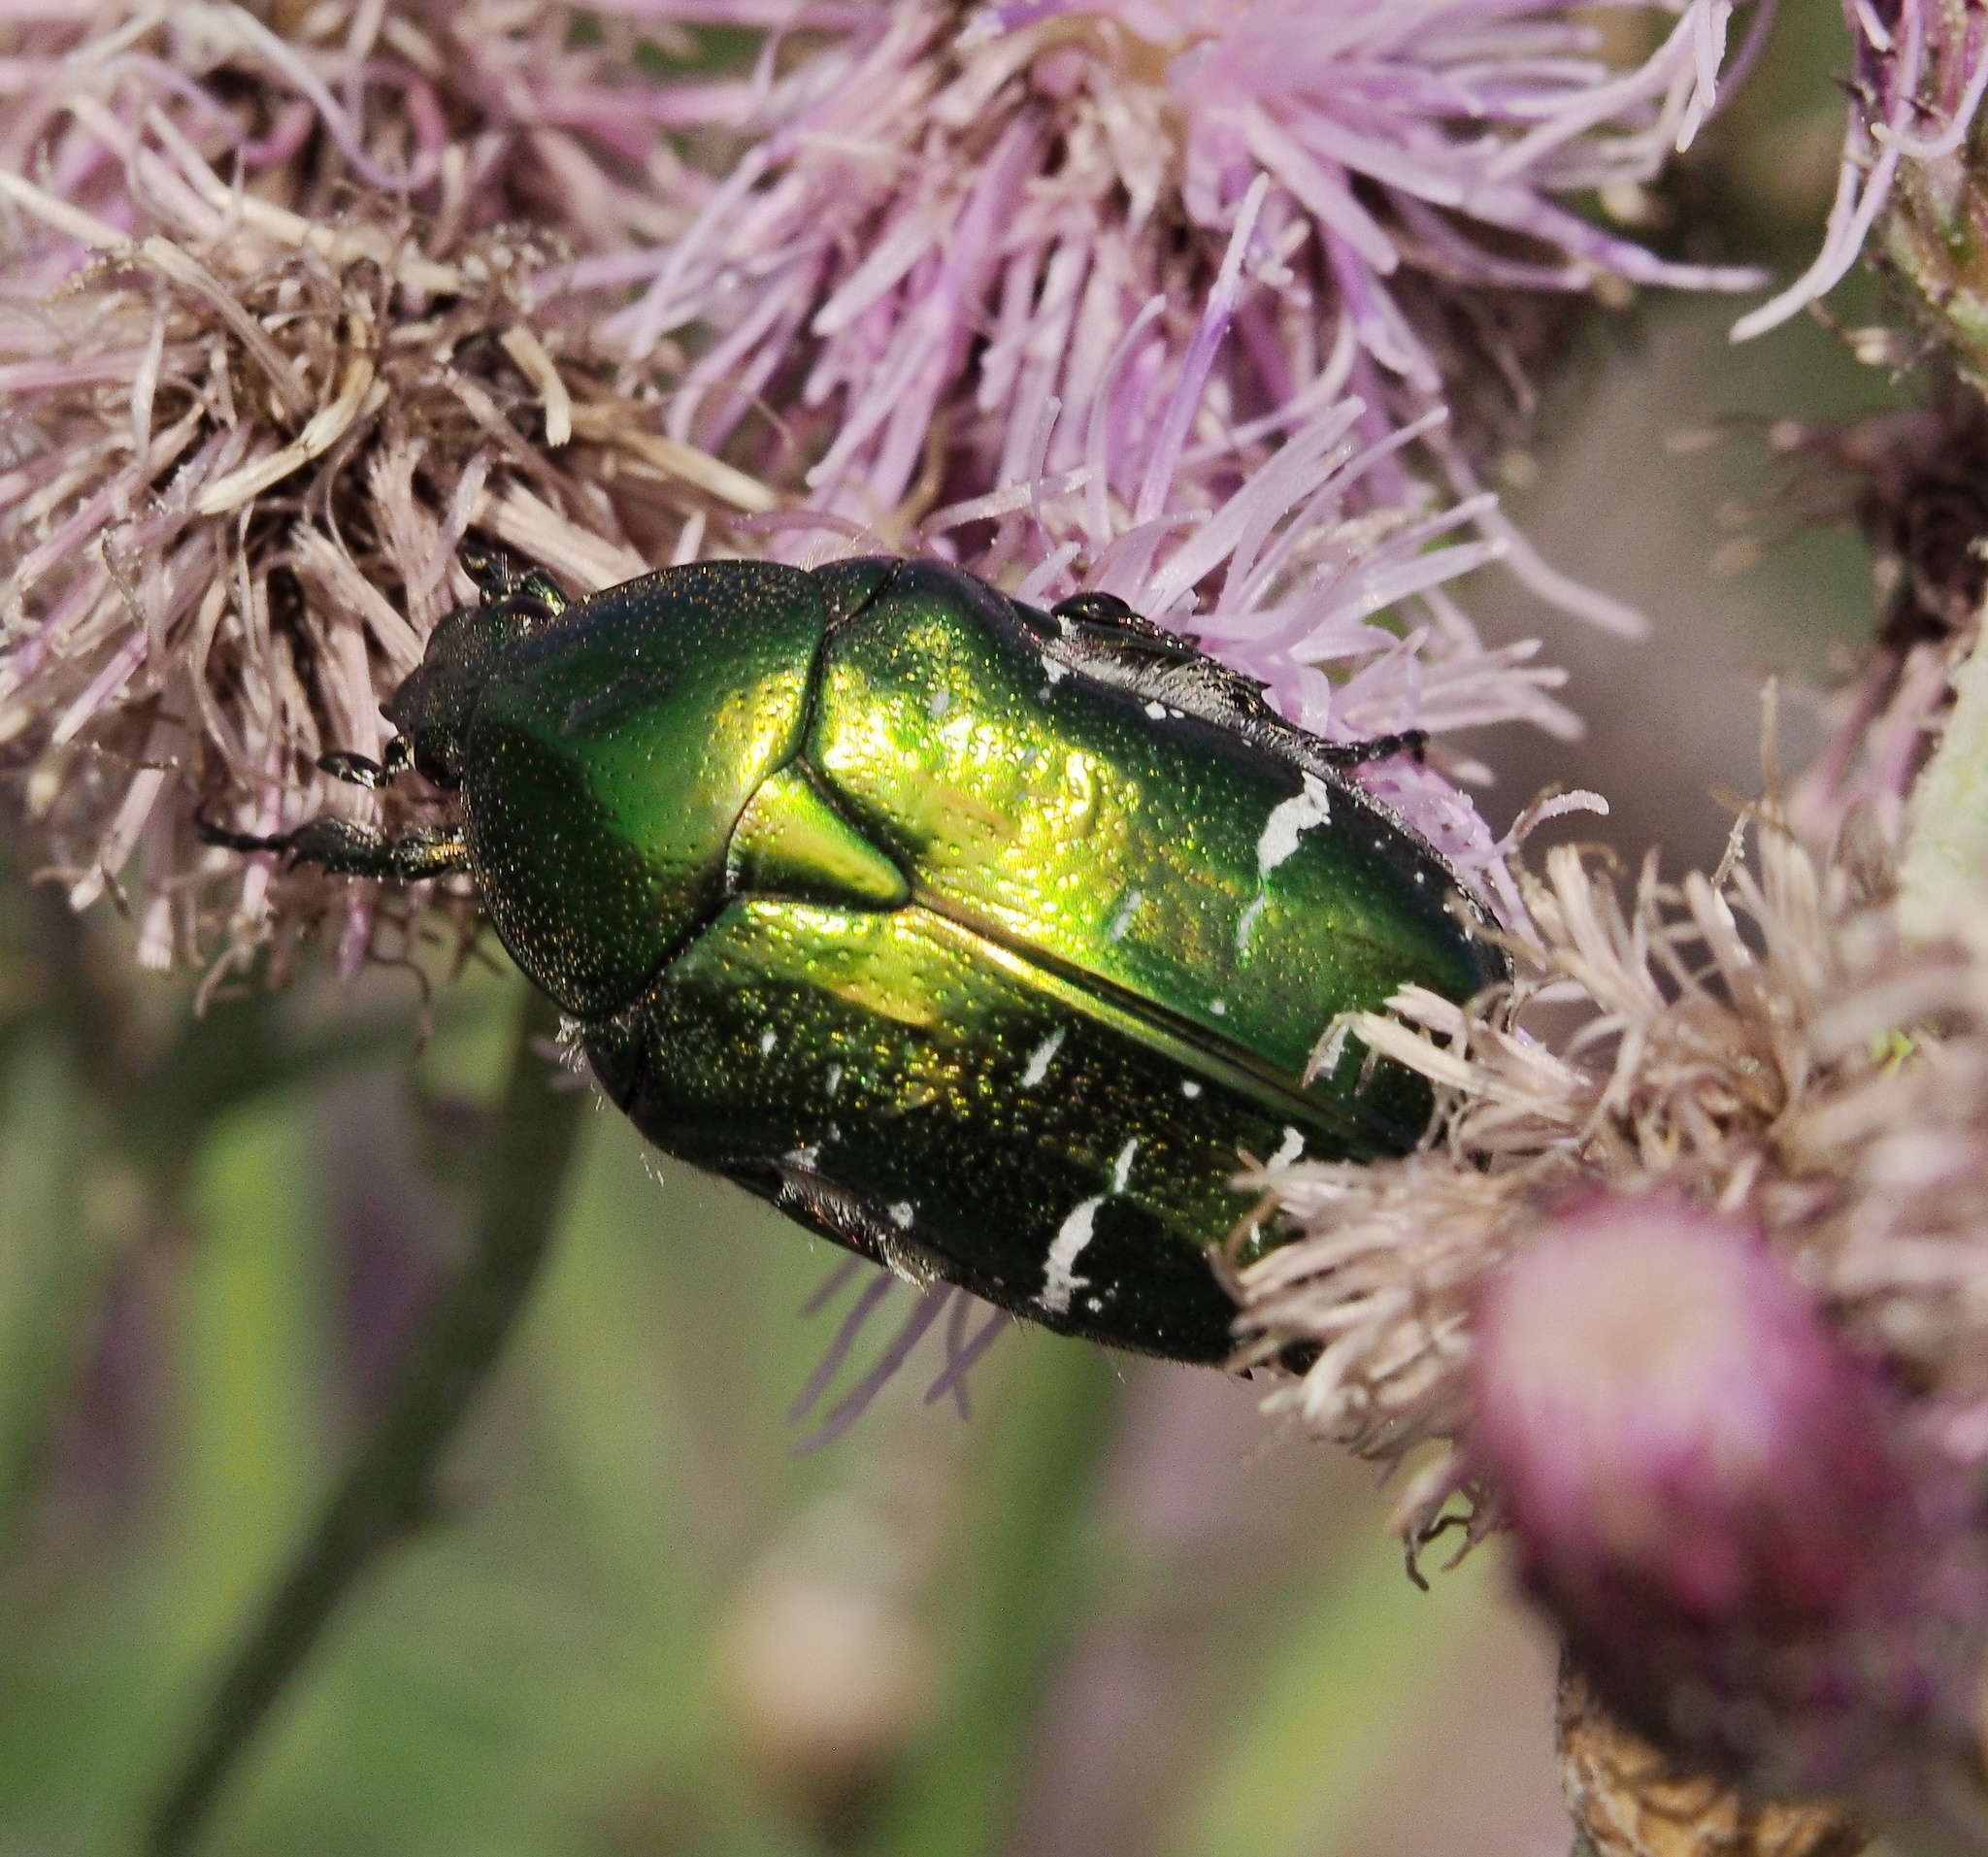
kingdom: Animalia
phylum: Arthropoda
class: Insecta
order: Coleoptera
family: Scarabaeidae
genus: Cetonia
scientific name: Cetonia aurata
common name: Rose chafer
